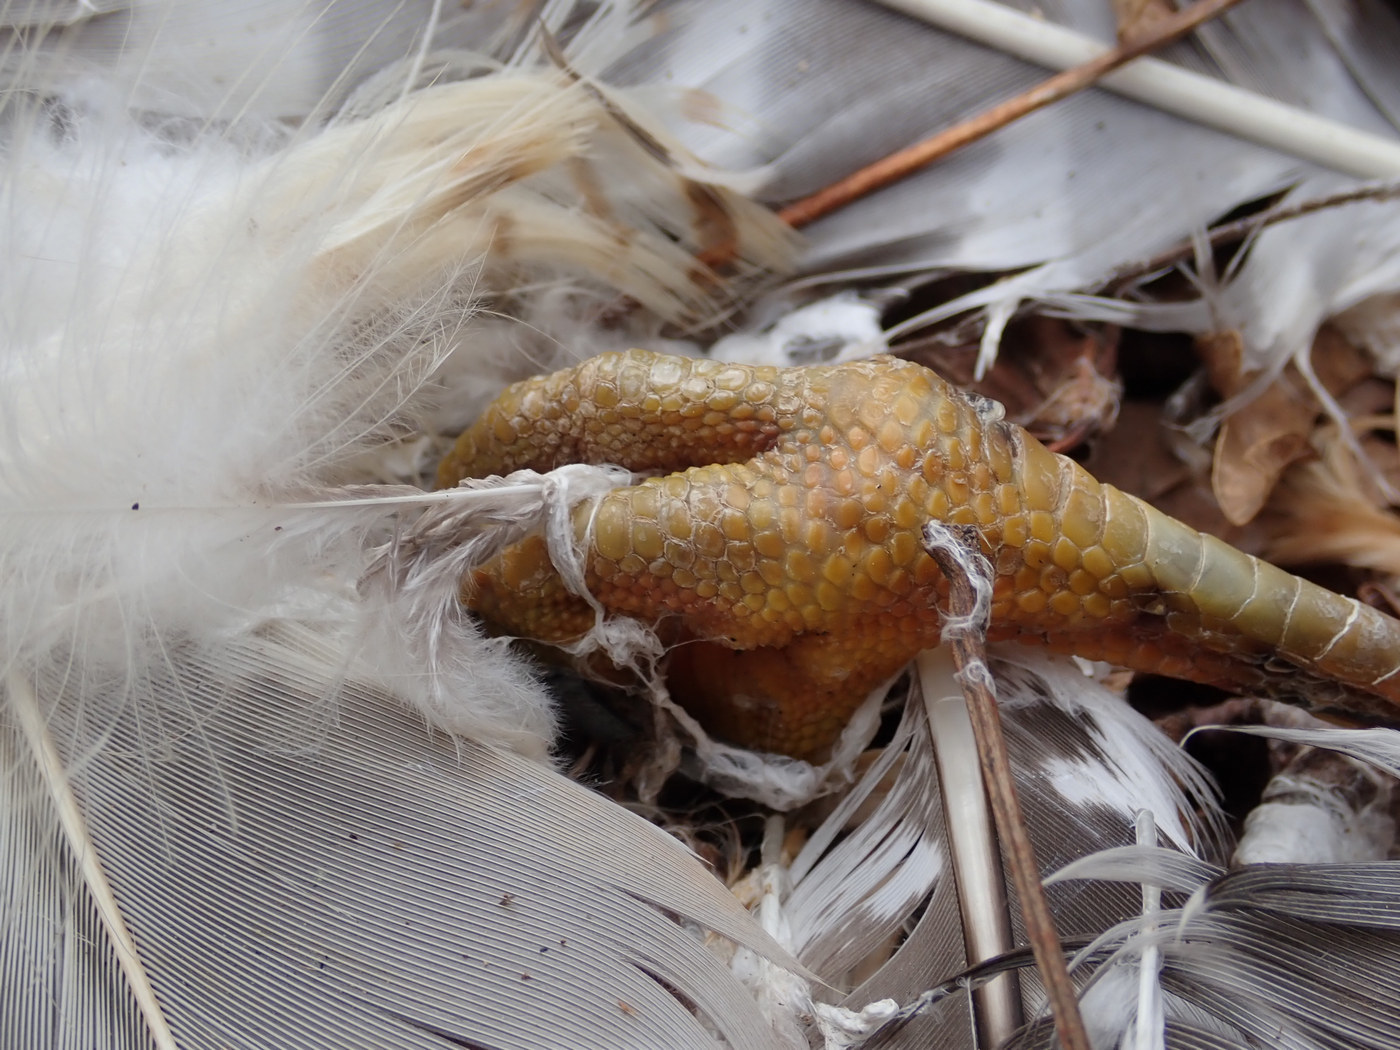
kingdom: Animalia
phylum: Chordata
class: Aves
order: Accipitriformes
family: Accipitridae
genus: Buteo
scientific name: Buteo lineatus
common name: Red-shouldered hawk
